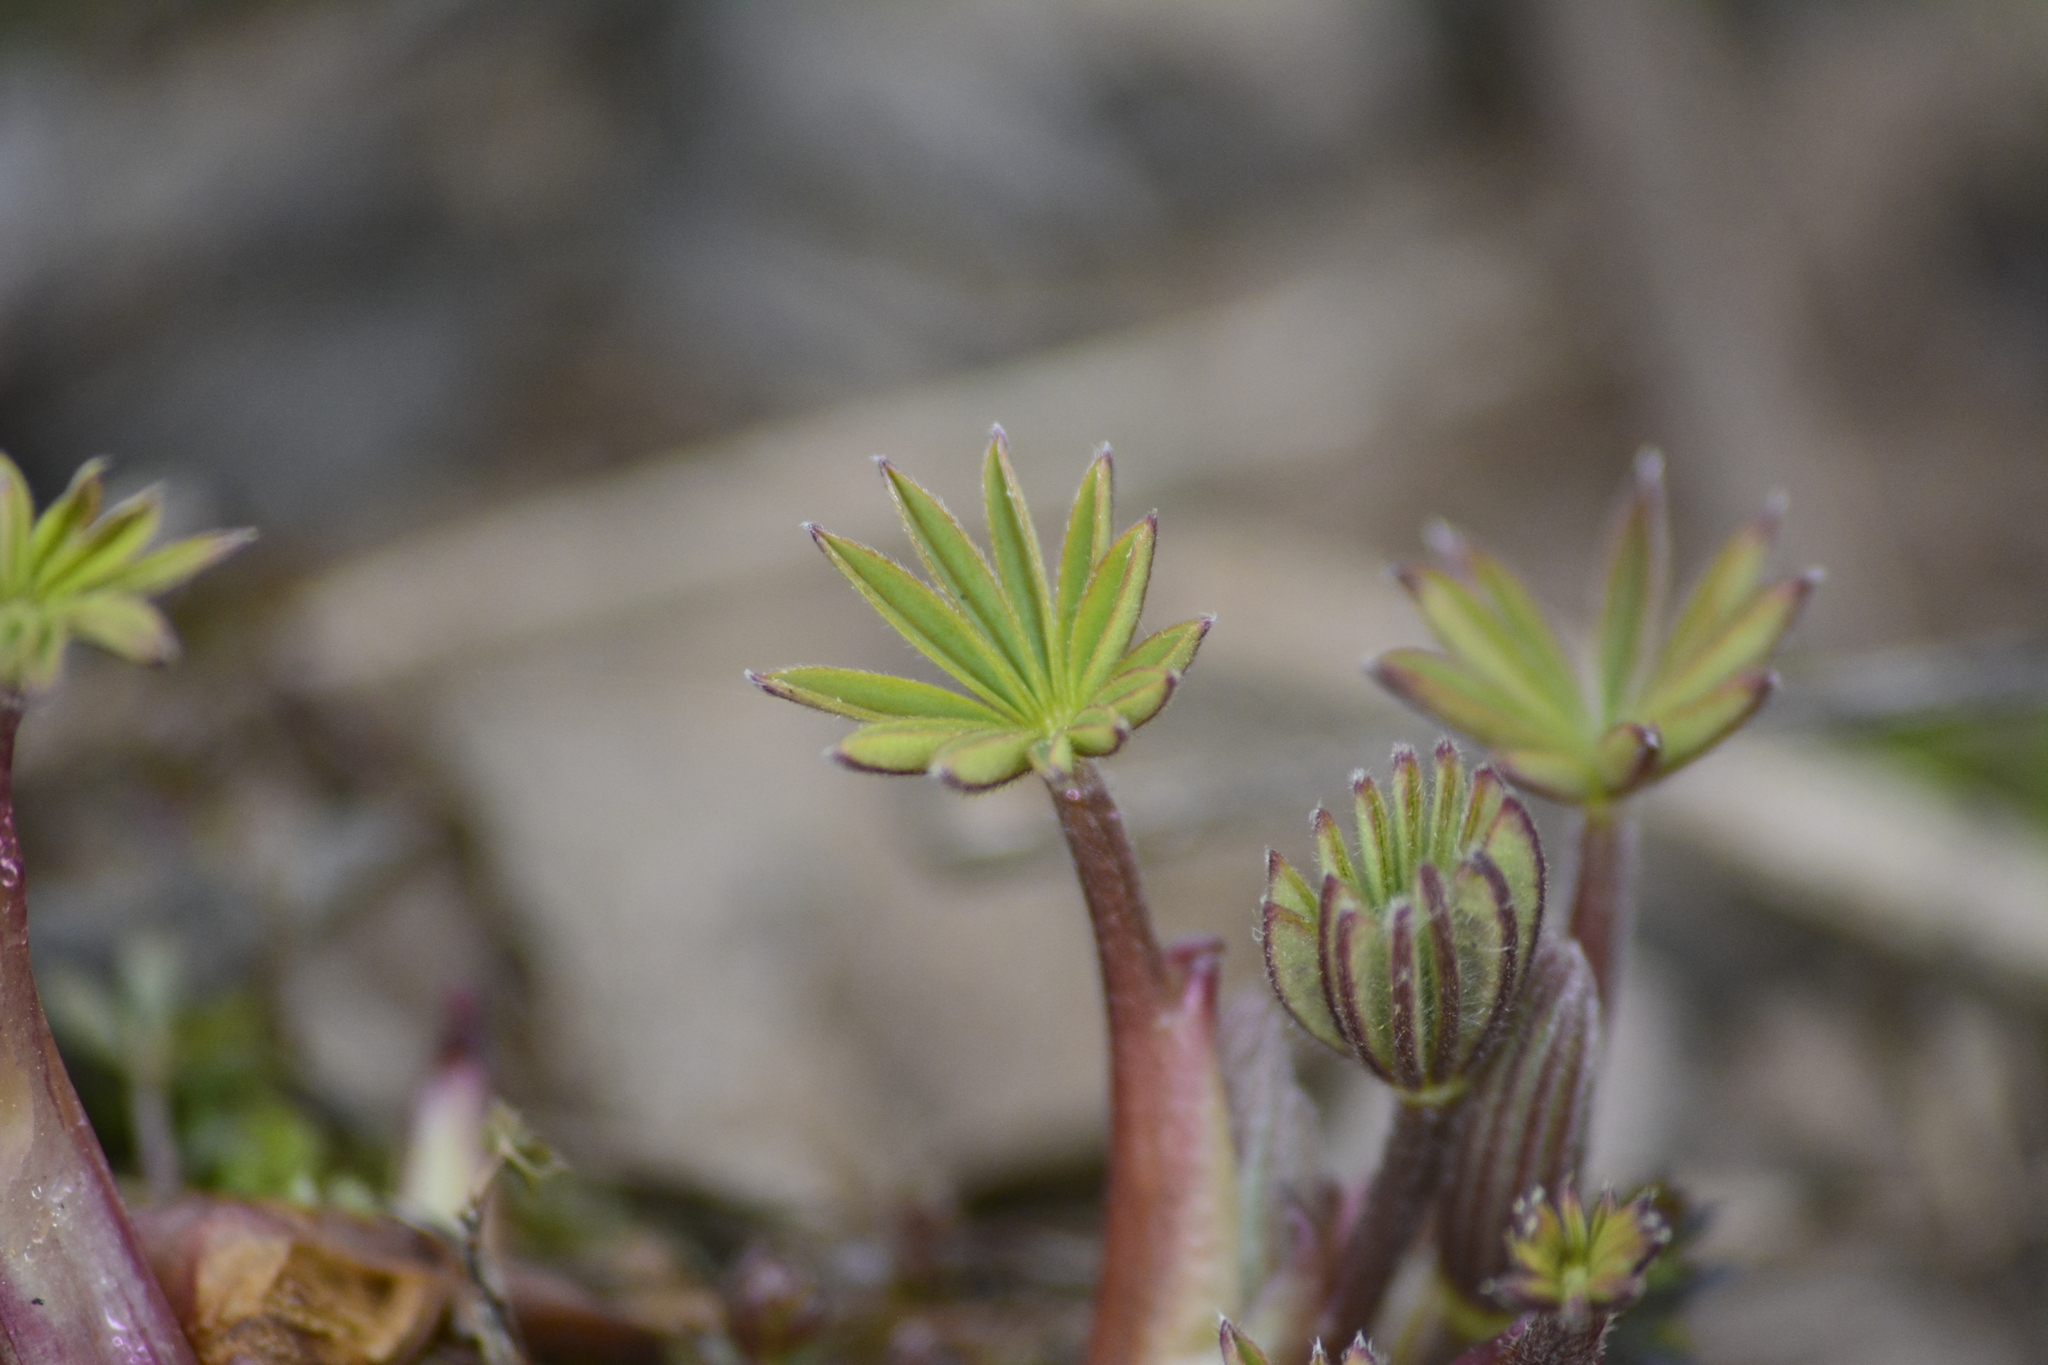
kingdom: Plantae
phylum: Tracheophyta
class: Magnoliopsida
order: Fabales
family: Fabaceae
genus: Lupinus
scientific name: Lupinus polyphyllus
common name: Garden lupin
